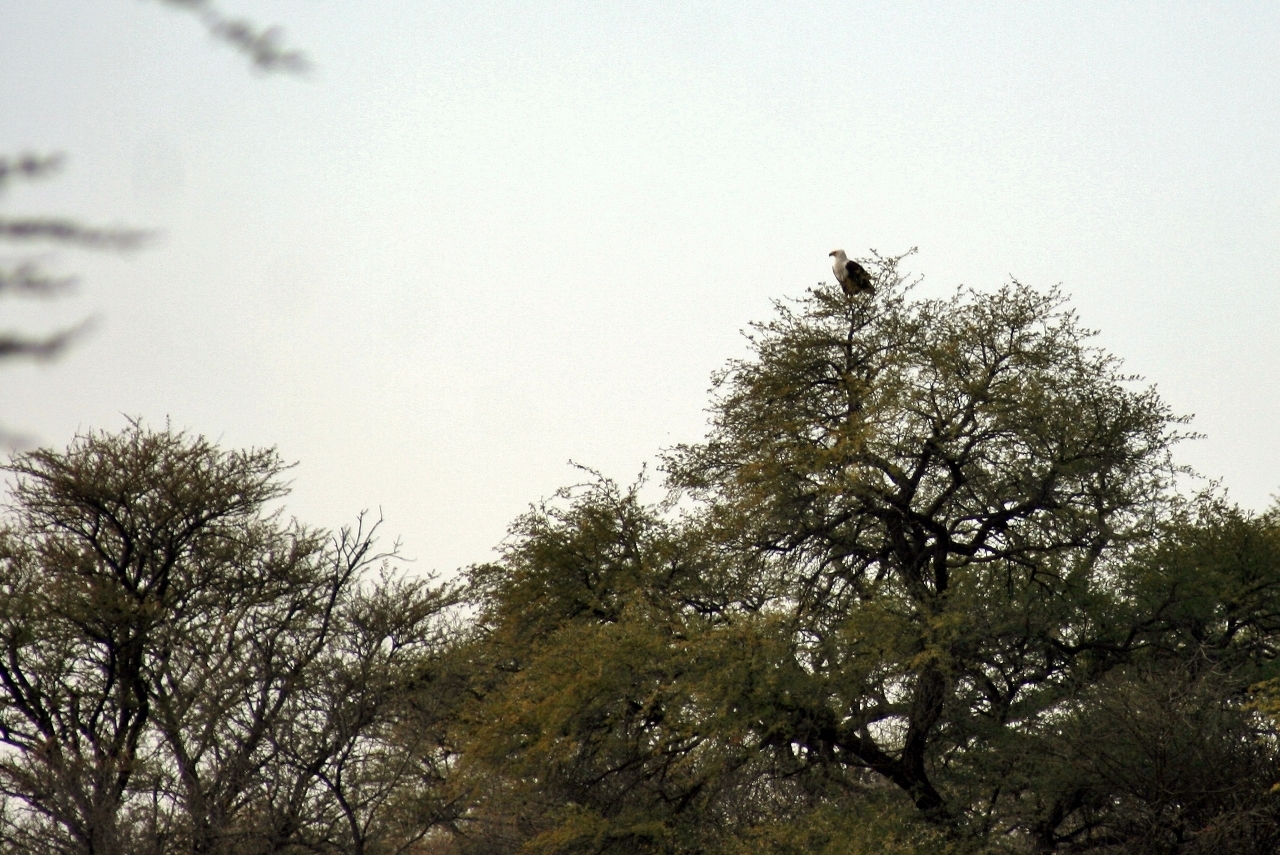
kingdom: Animalia
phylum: Chordata
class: Aves
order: Accipitriformes
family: Accipitridae
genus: Haliaeetus
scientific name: Haliaeetus vocifer
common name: African fish eagle
